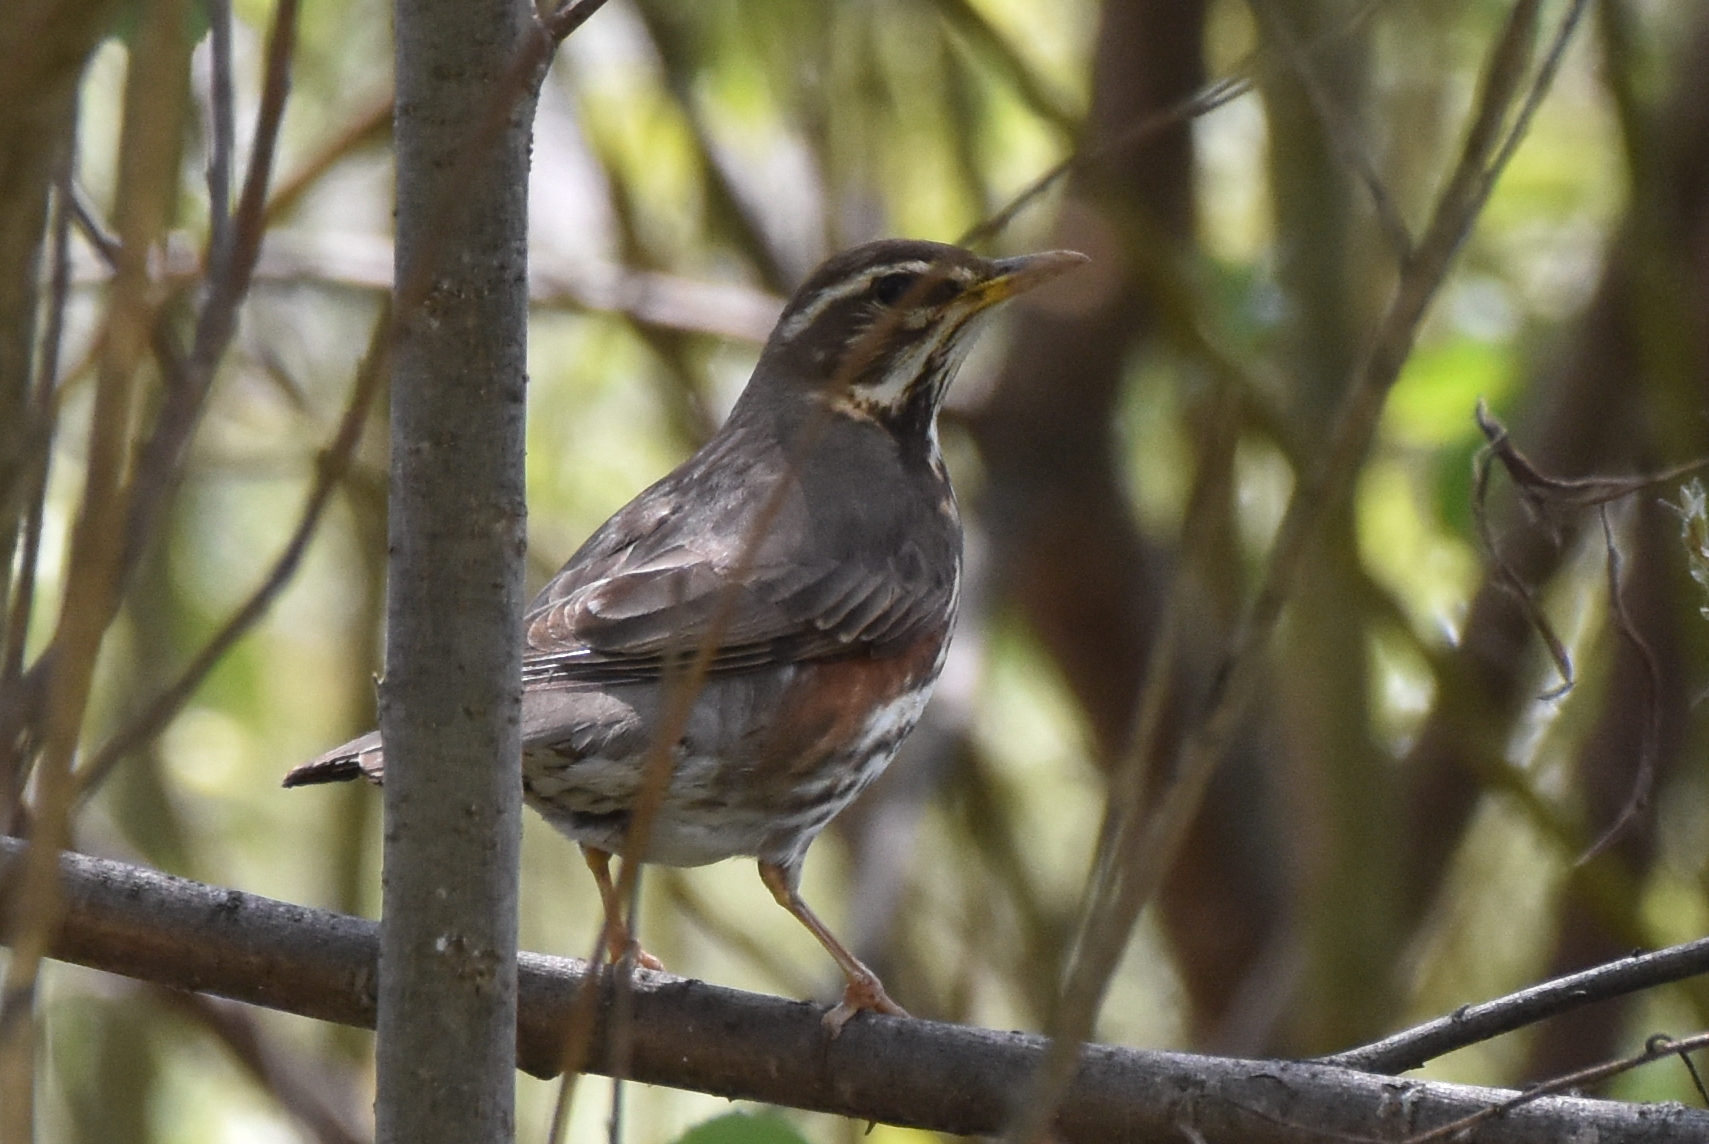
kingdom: Animalia
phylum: Chordata
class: Aves
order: Passeriformes
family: Turdidae
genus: Turdus
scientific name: Turdus iliacus
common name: Redwing
